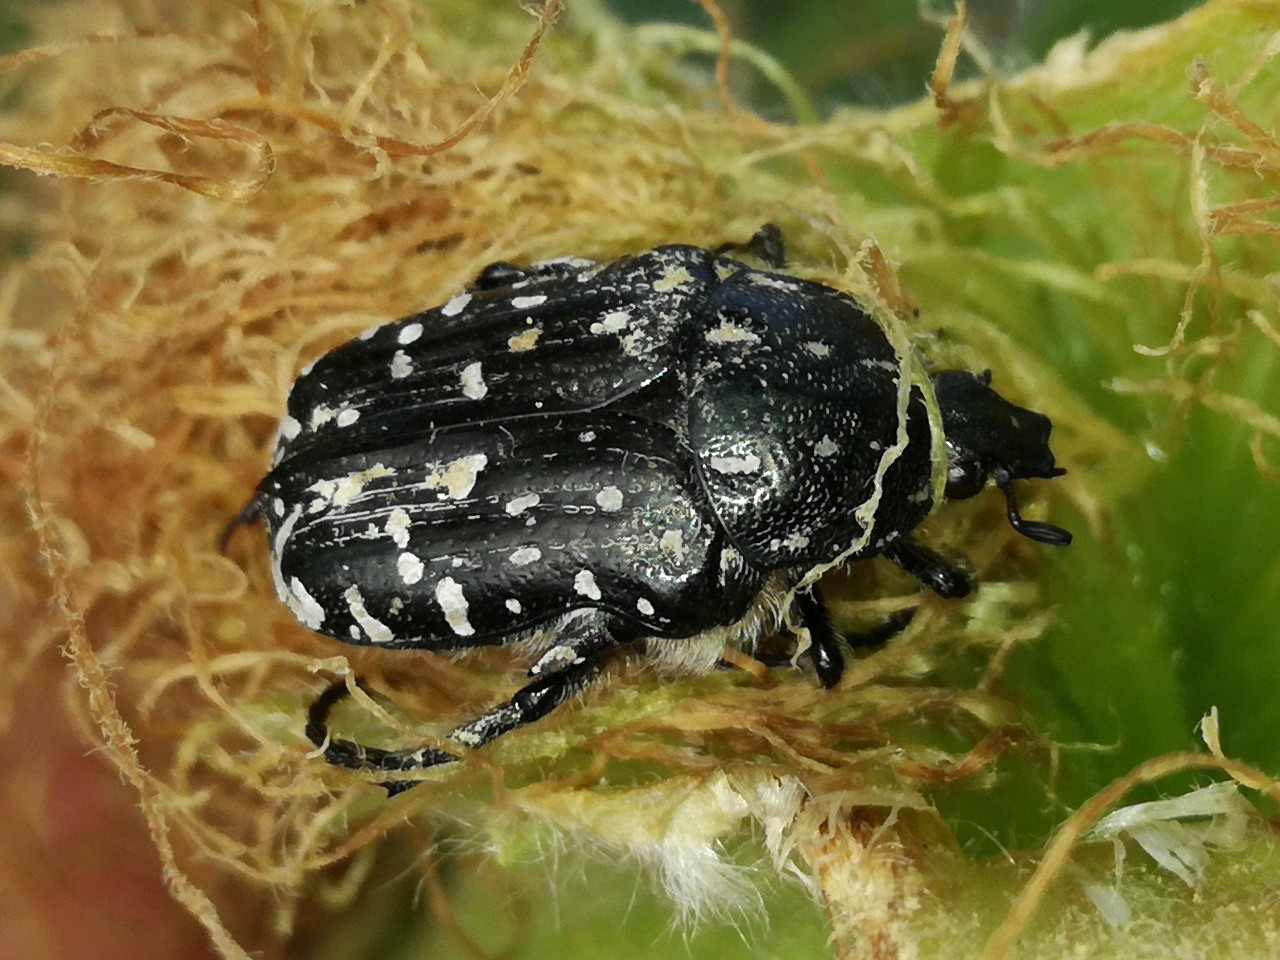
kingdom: Animalia
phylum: Arthropoda
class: Insecta
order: Coleoptera
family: Scarabaeidae
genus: Oxythyrea
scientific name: Oxythyrea funesta
